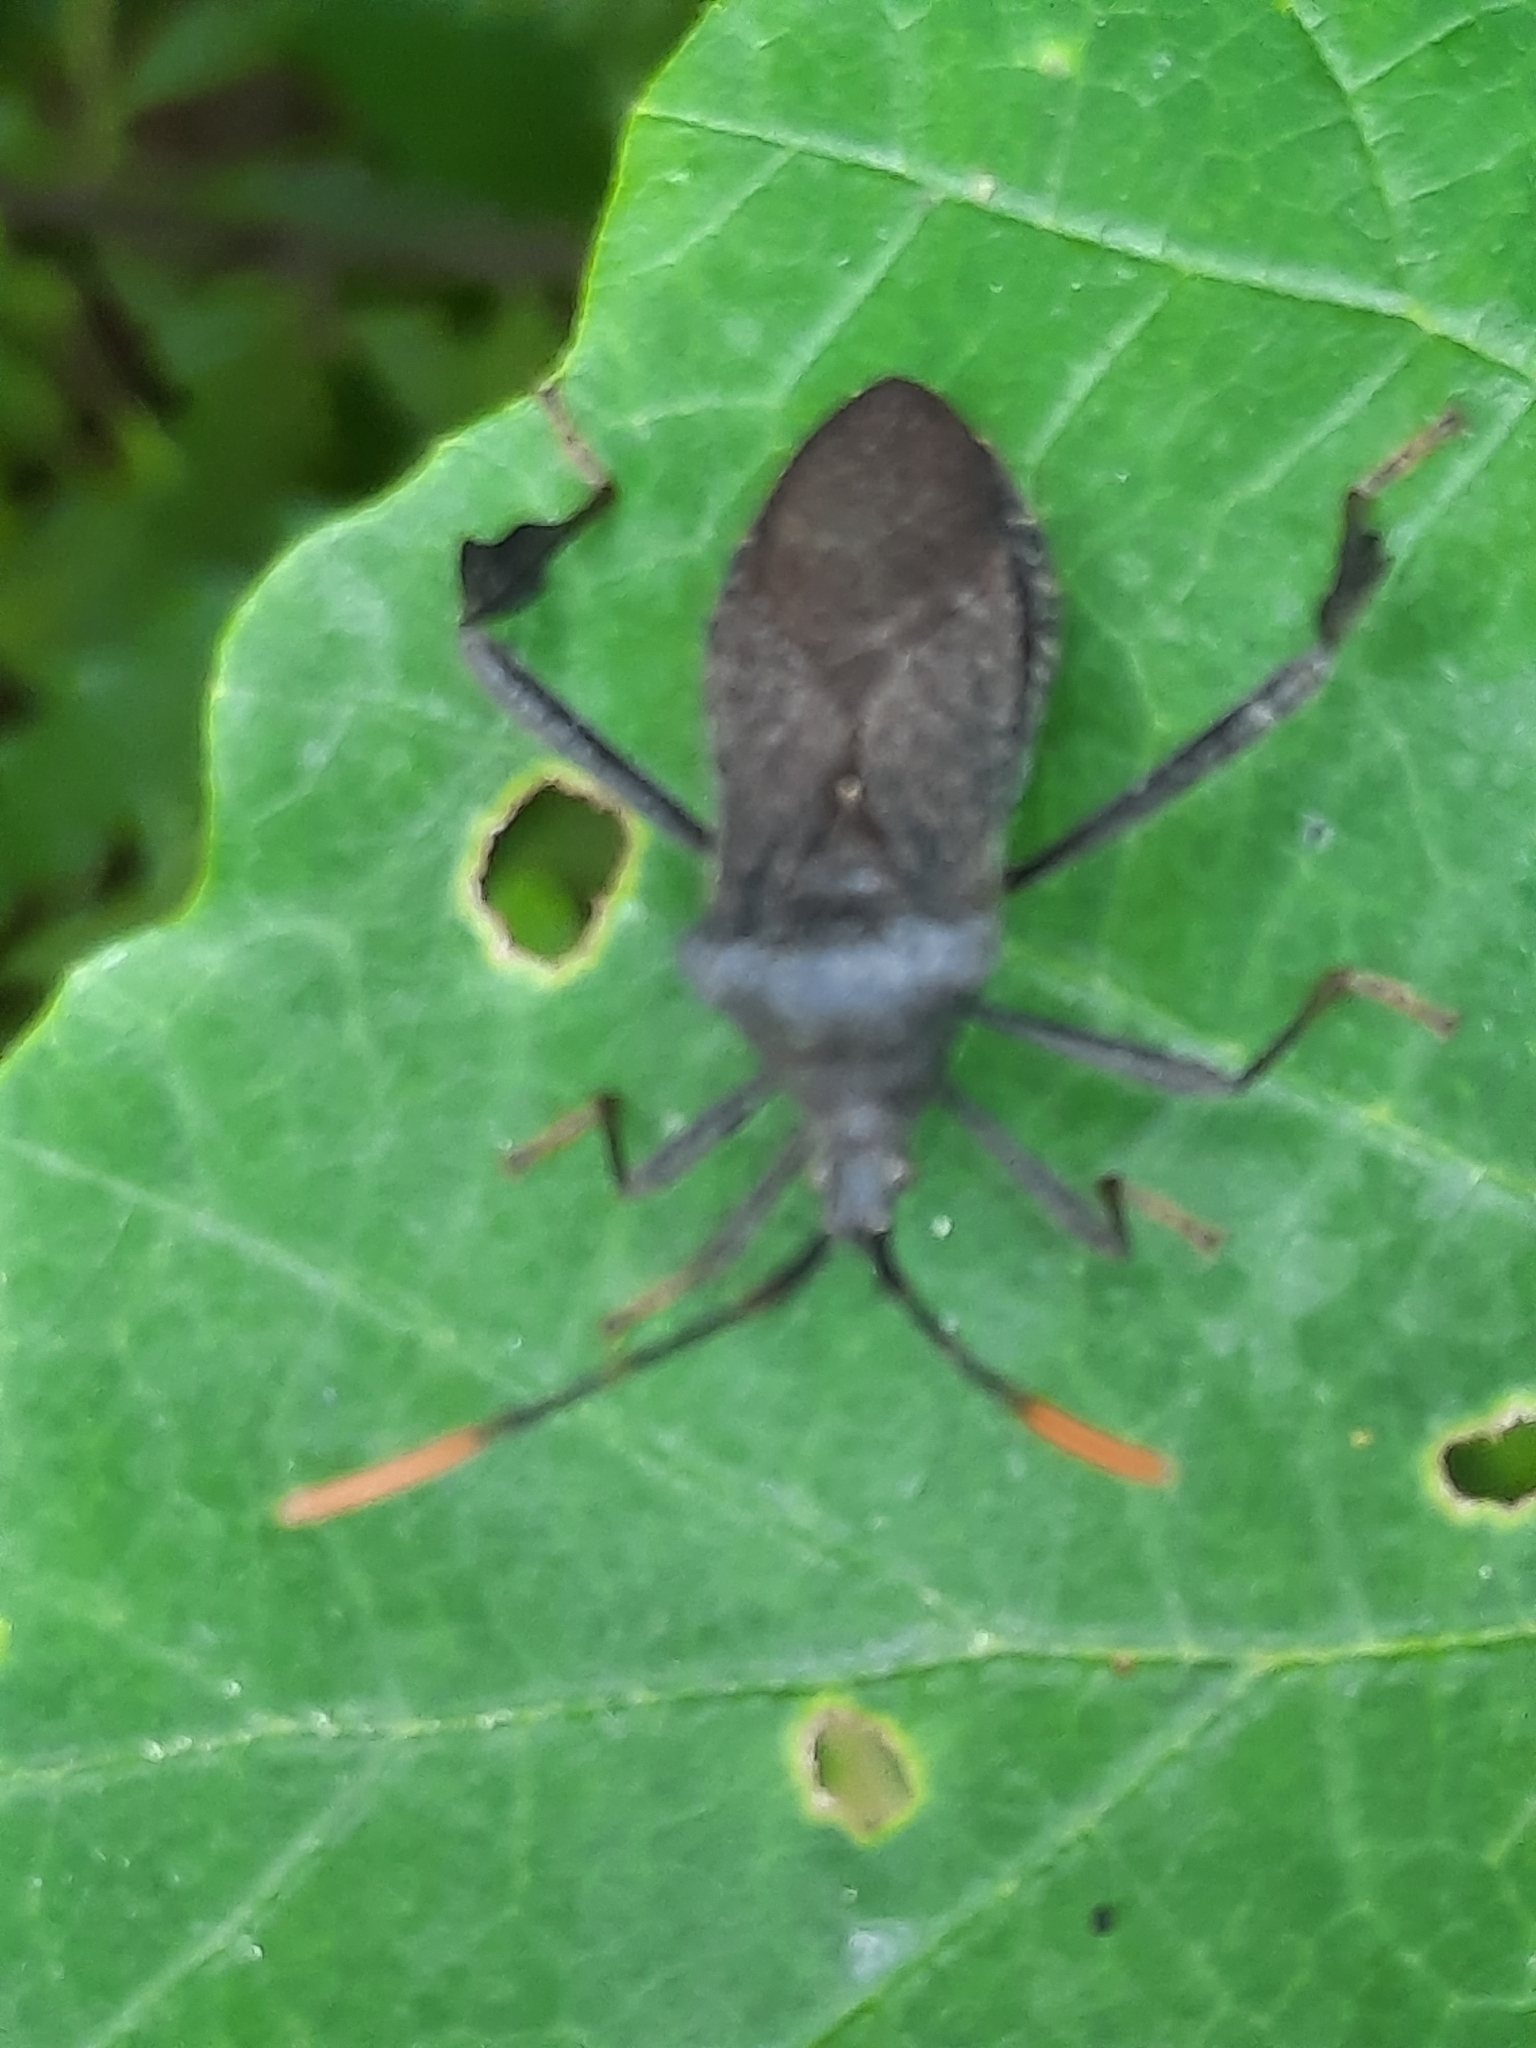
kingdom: Animalia
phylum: Arthropoda
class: Insecta
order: Hemiptera
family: Coreidae
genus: Acanthocephala
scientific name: Acanthocephala terminalis
